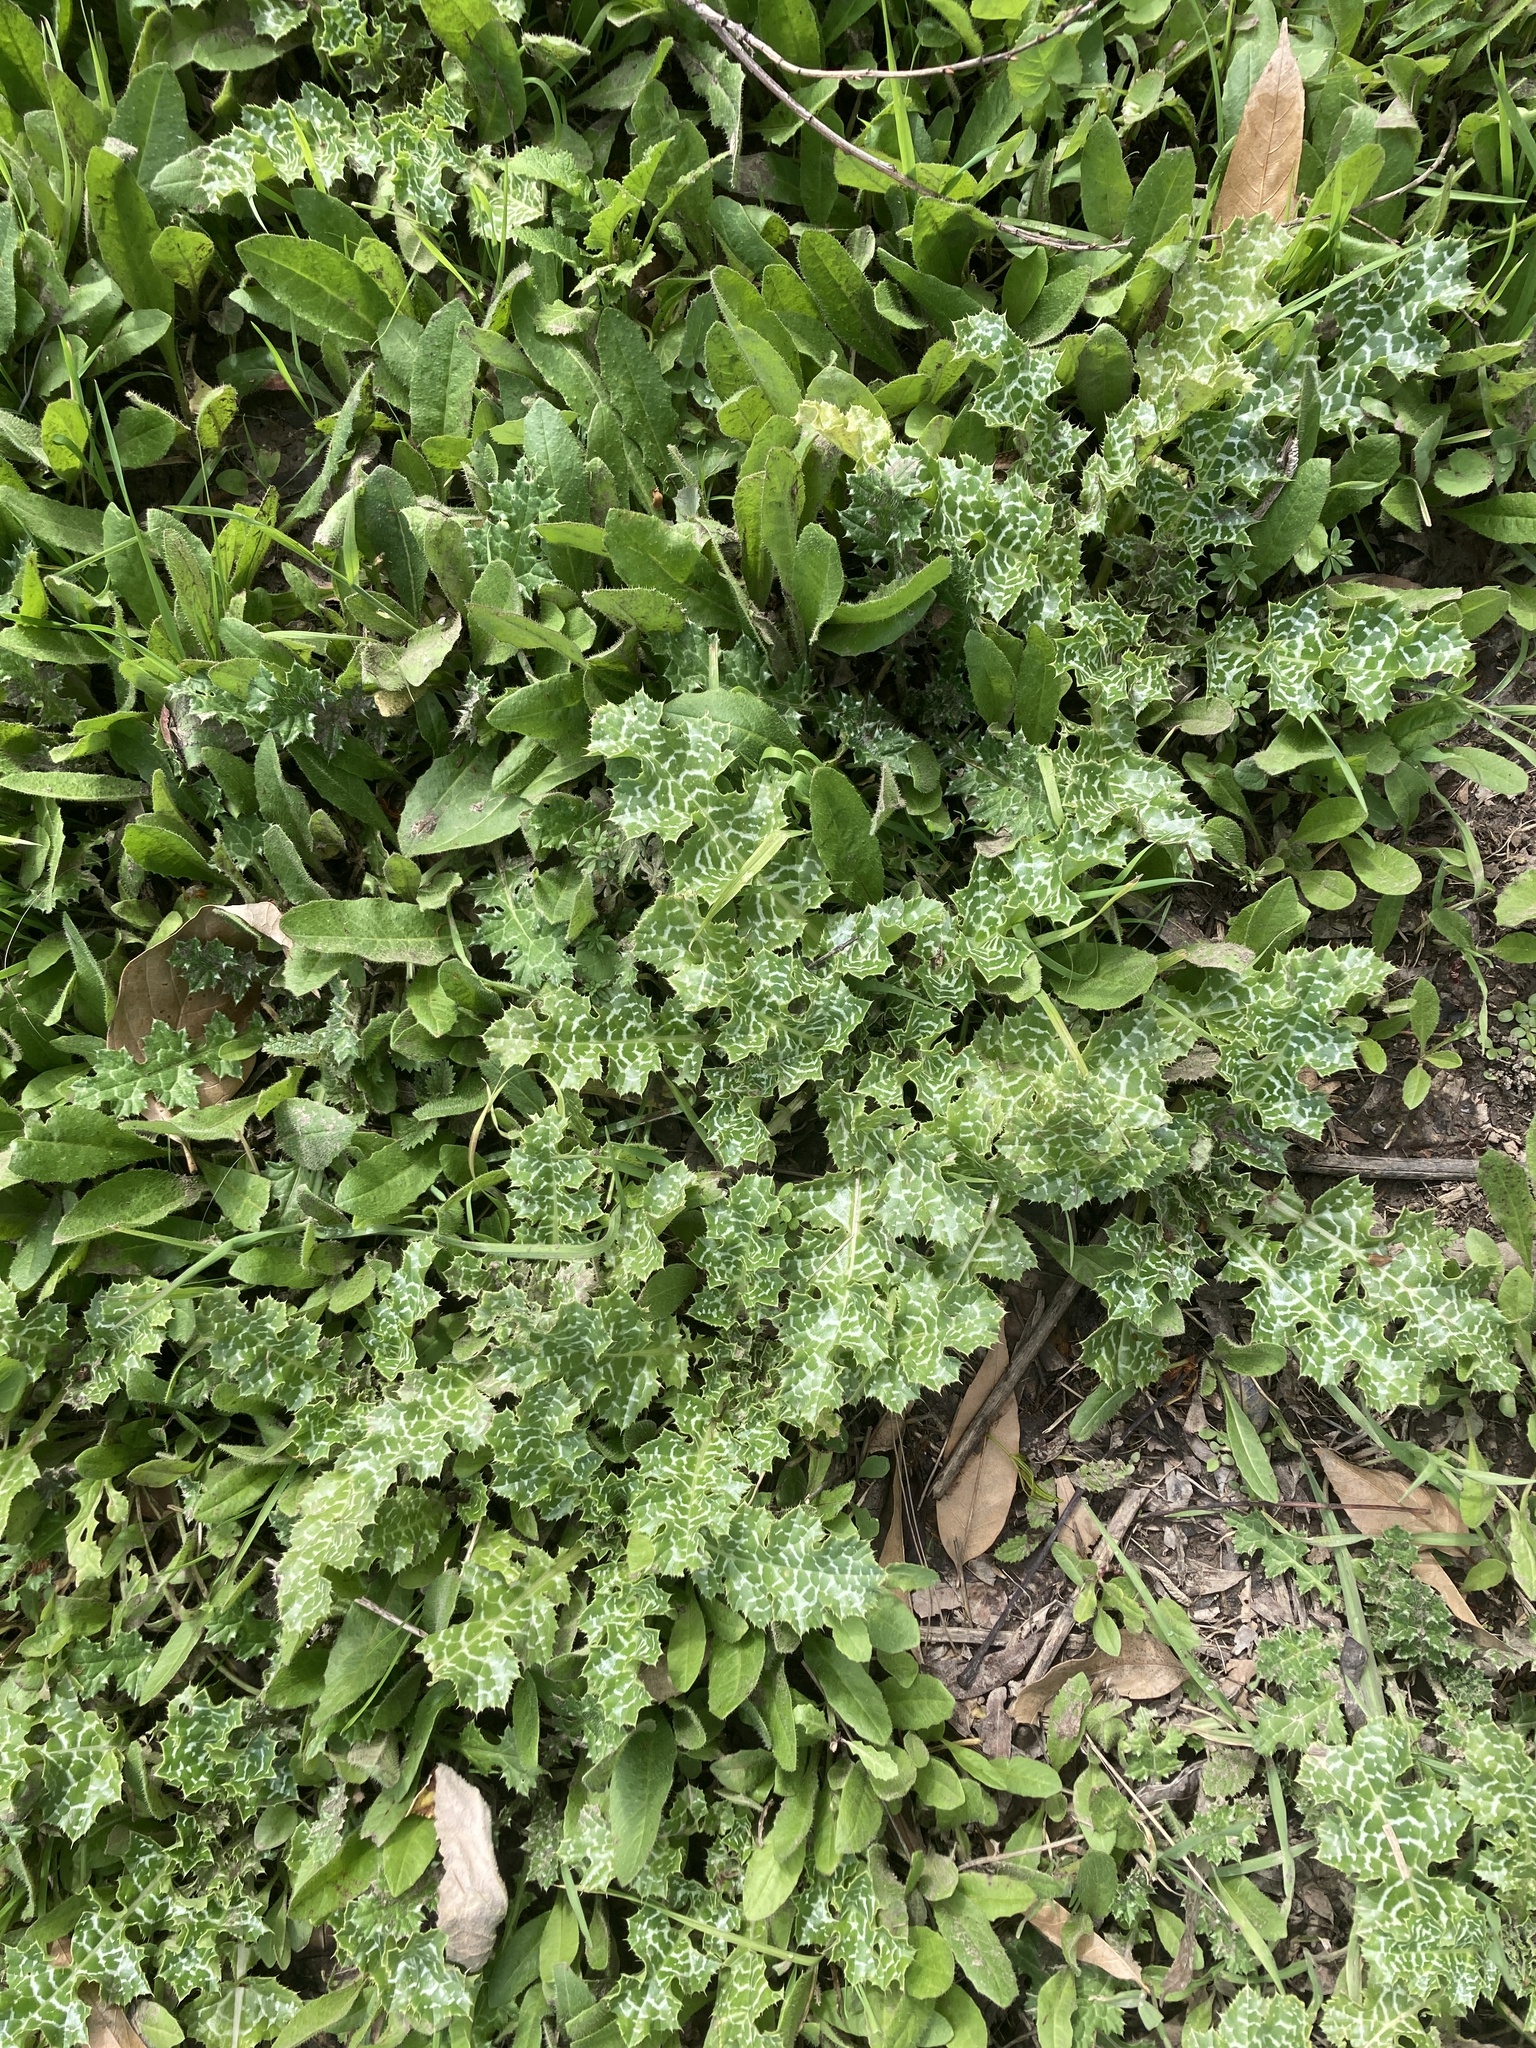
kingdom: Plantae
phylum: Tracheophyta
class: Magnoliopsida
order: Asterales
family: Asteraceae
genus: Silybum
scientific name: Silybum marianum
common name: Milk thistle
